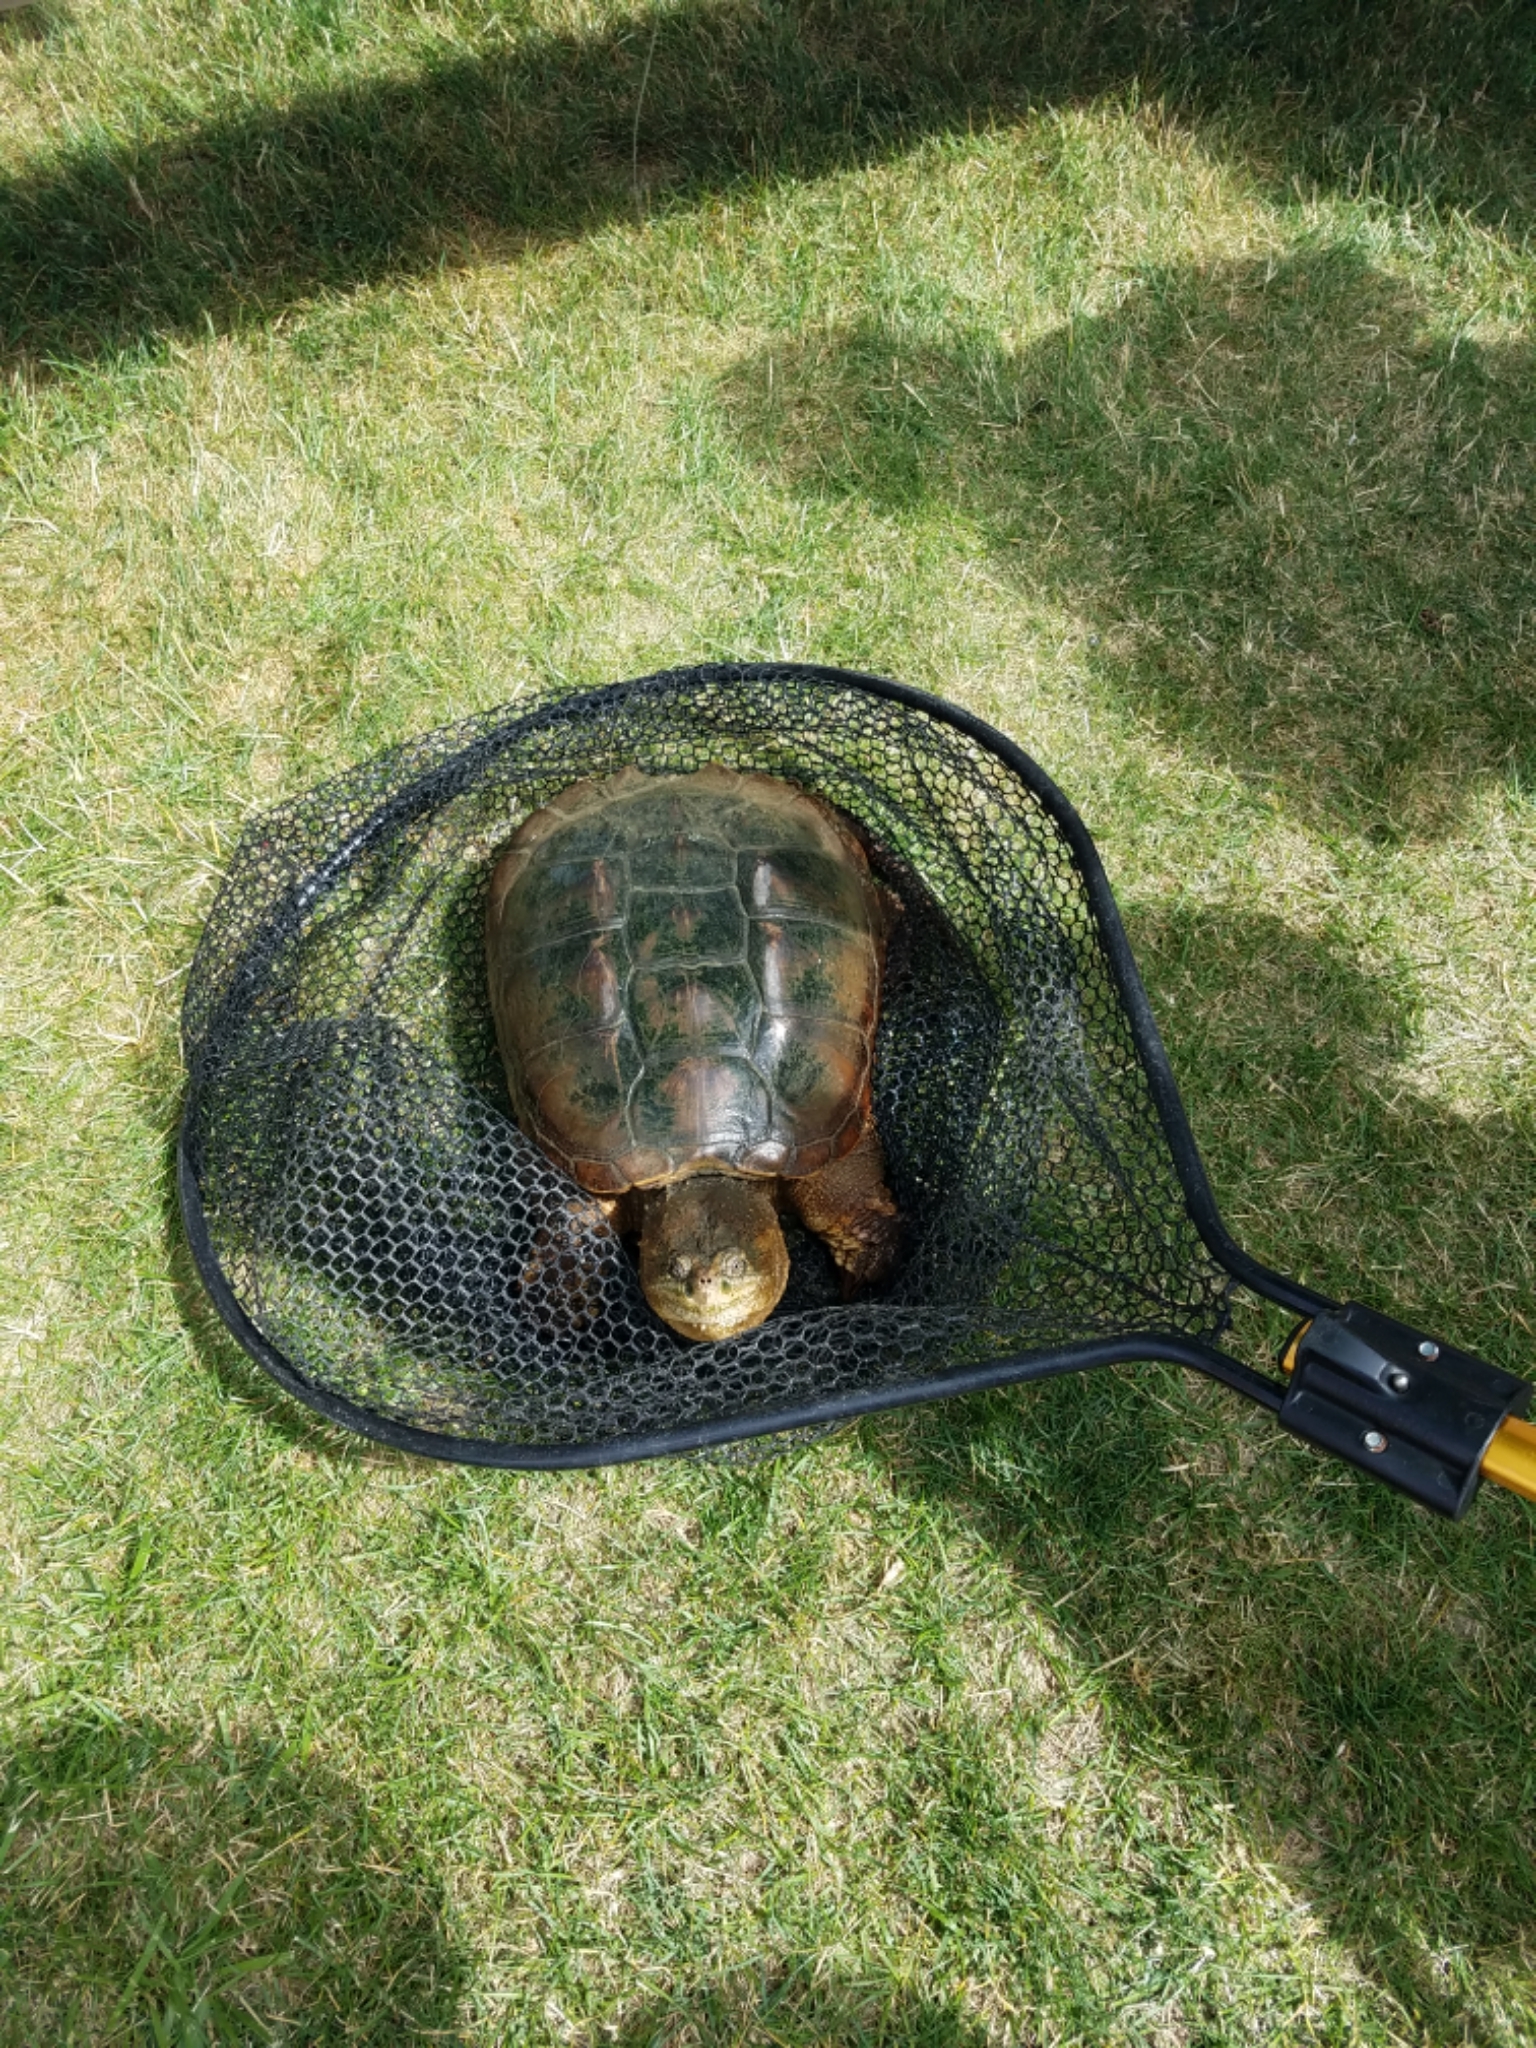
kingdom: Animalia
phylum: Chordata
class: Testudines
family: Chelydridae
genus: Chelydra
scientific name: Chelydra serpentina
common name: Common snapping turtle
